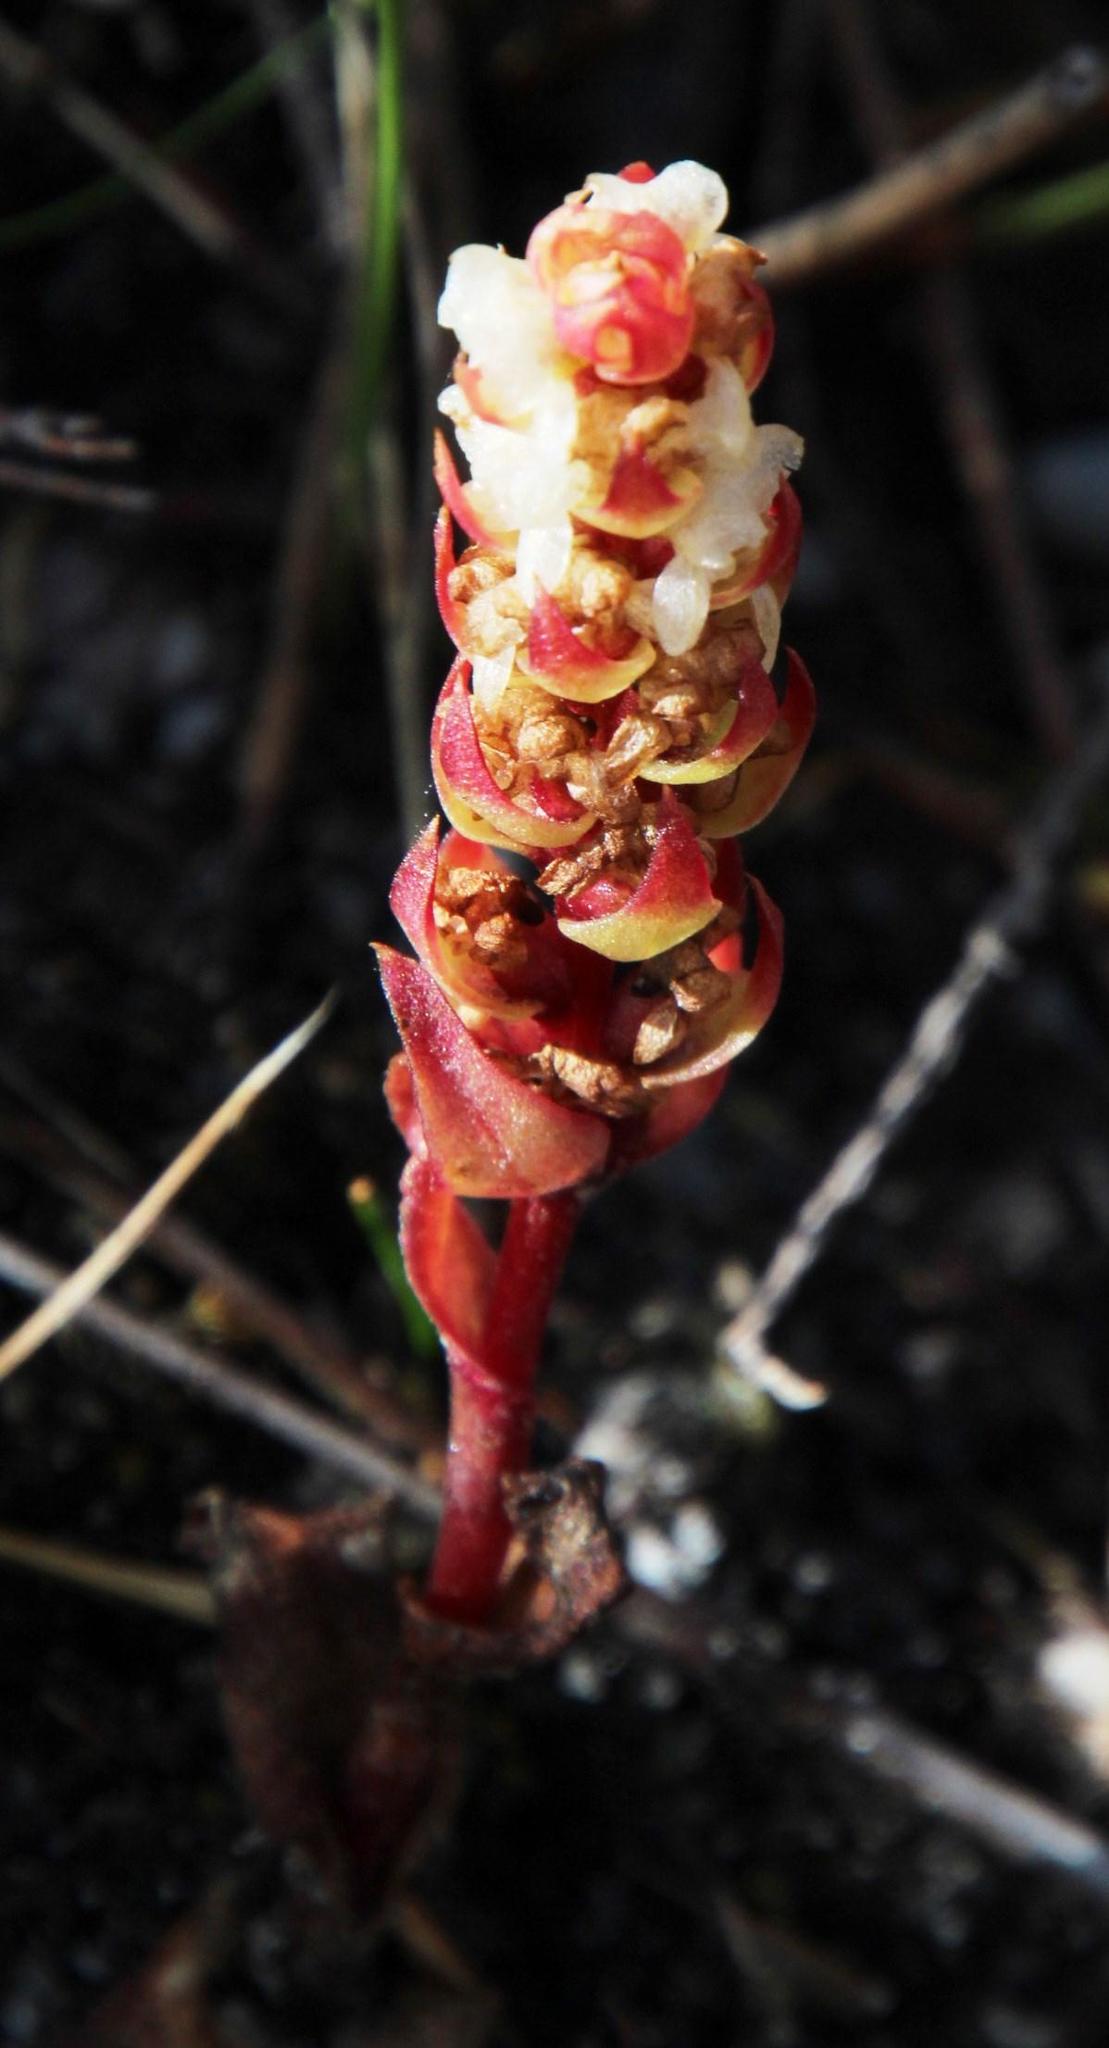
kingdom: Plantae
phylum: Tracheophyta
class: Liliopsida
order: Asparagales
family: Orchidaceae
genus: Satyrium
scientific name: Satyrium bicallosum
